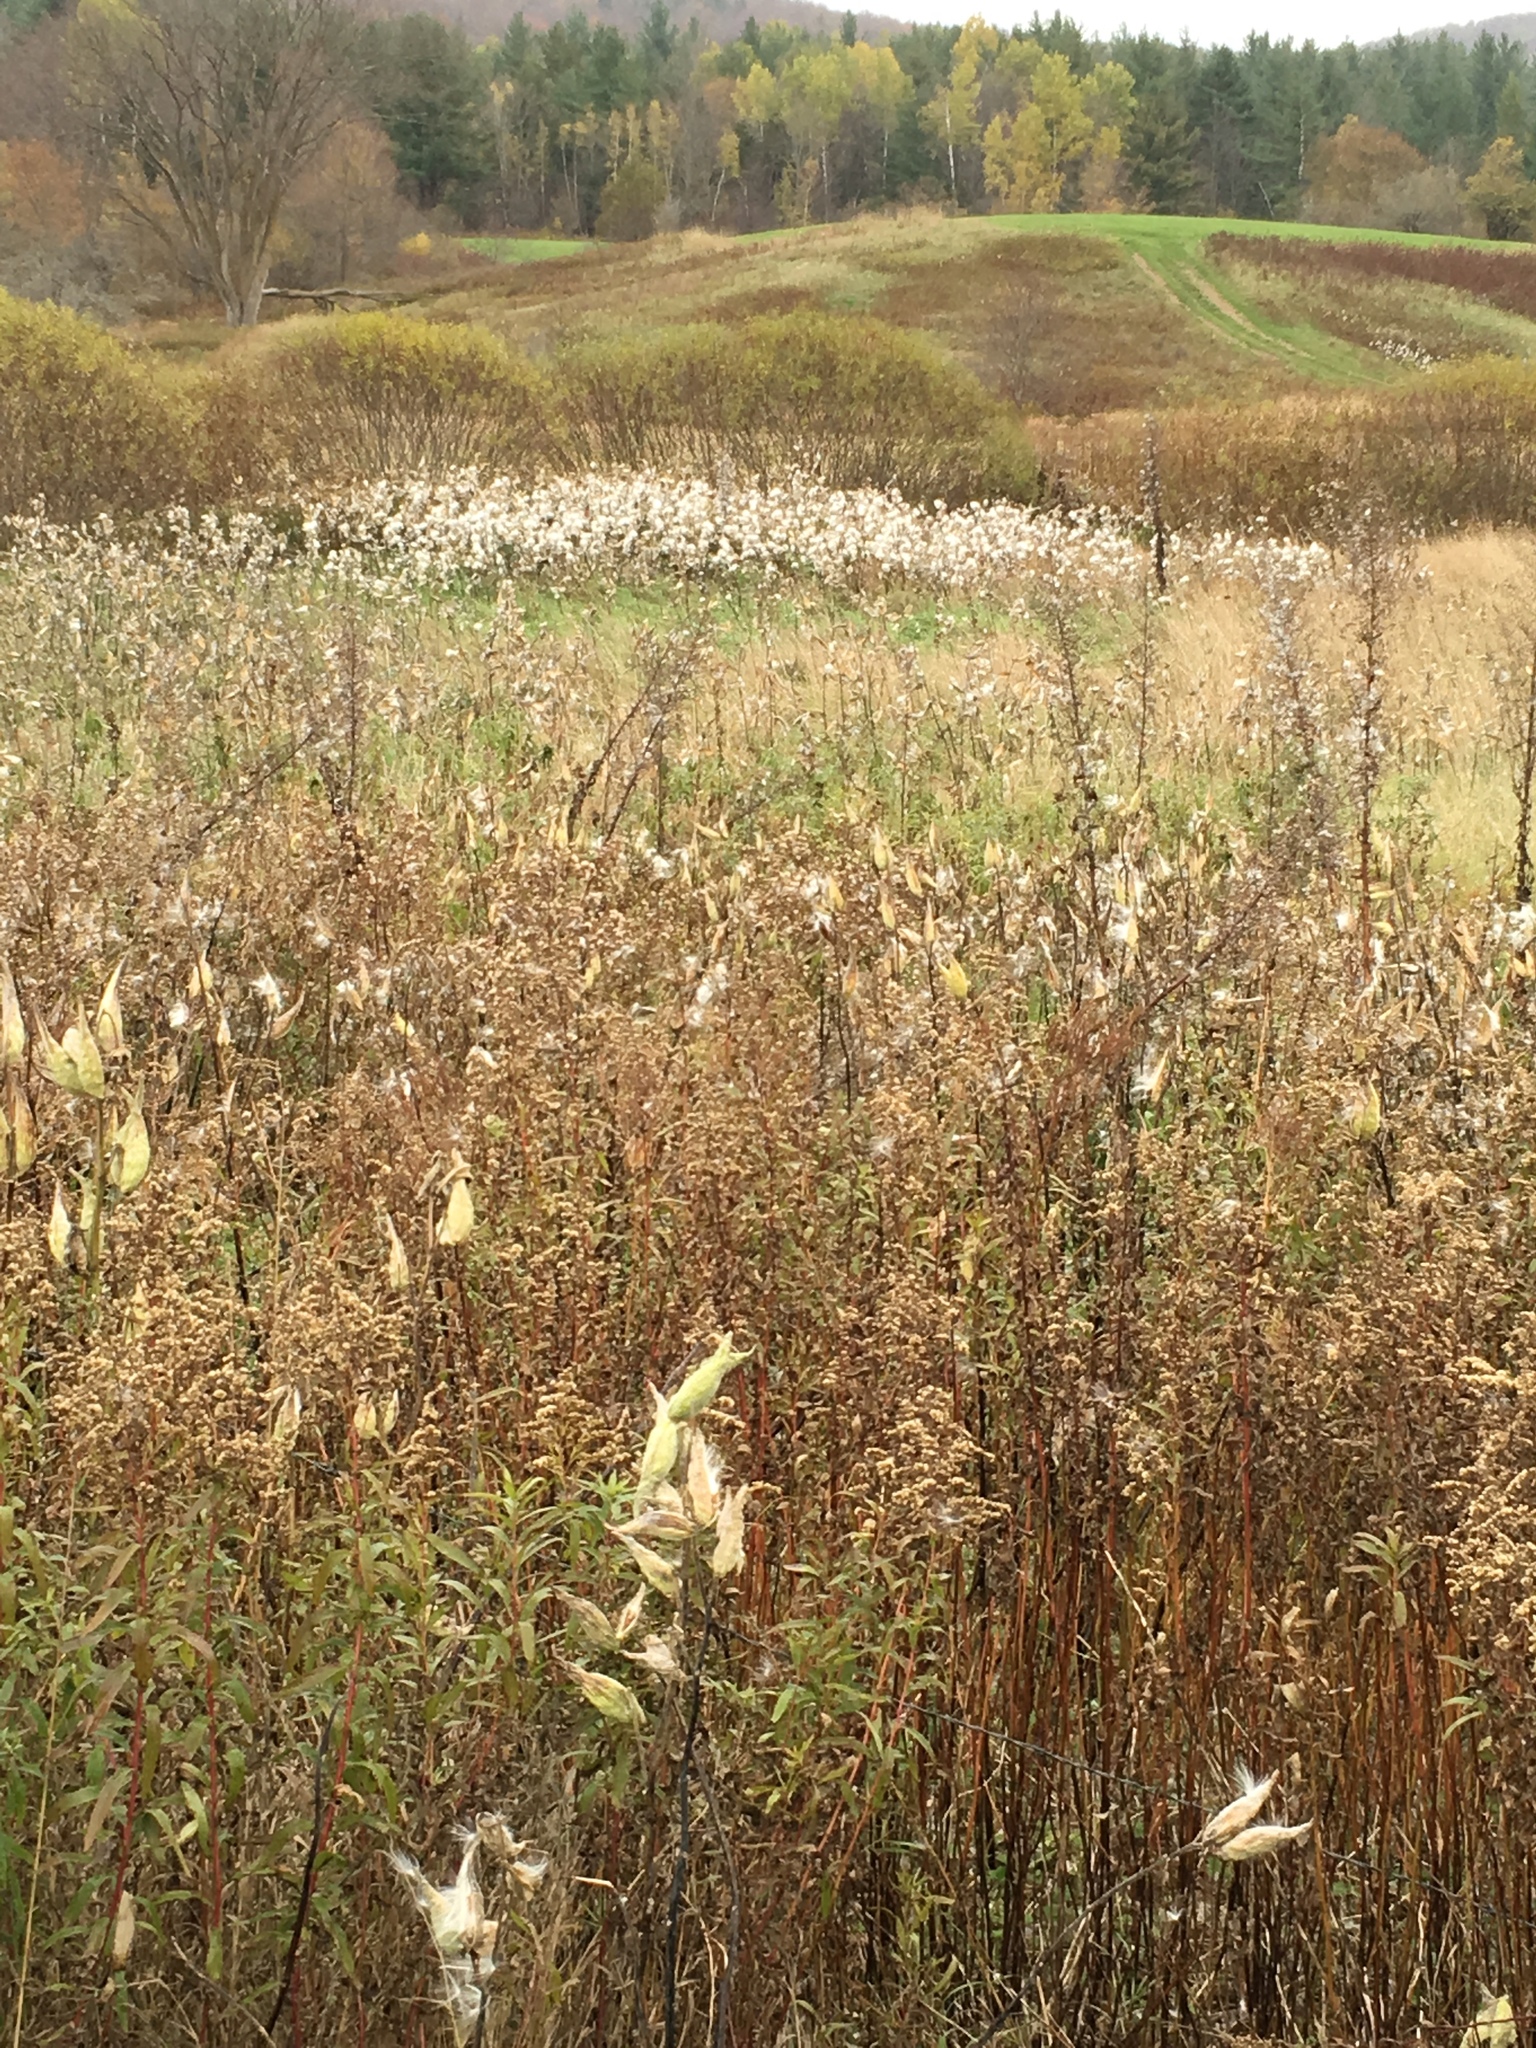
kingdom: Plantae
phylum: Tracheophyta
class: Magnoliopsida
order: Gentianales
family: Apocynaceae
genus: Asclepias
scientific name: Asclepias syriaca
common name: Common milkweed
